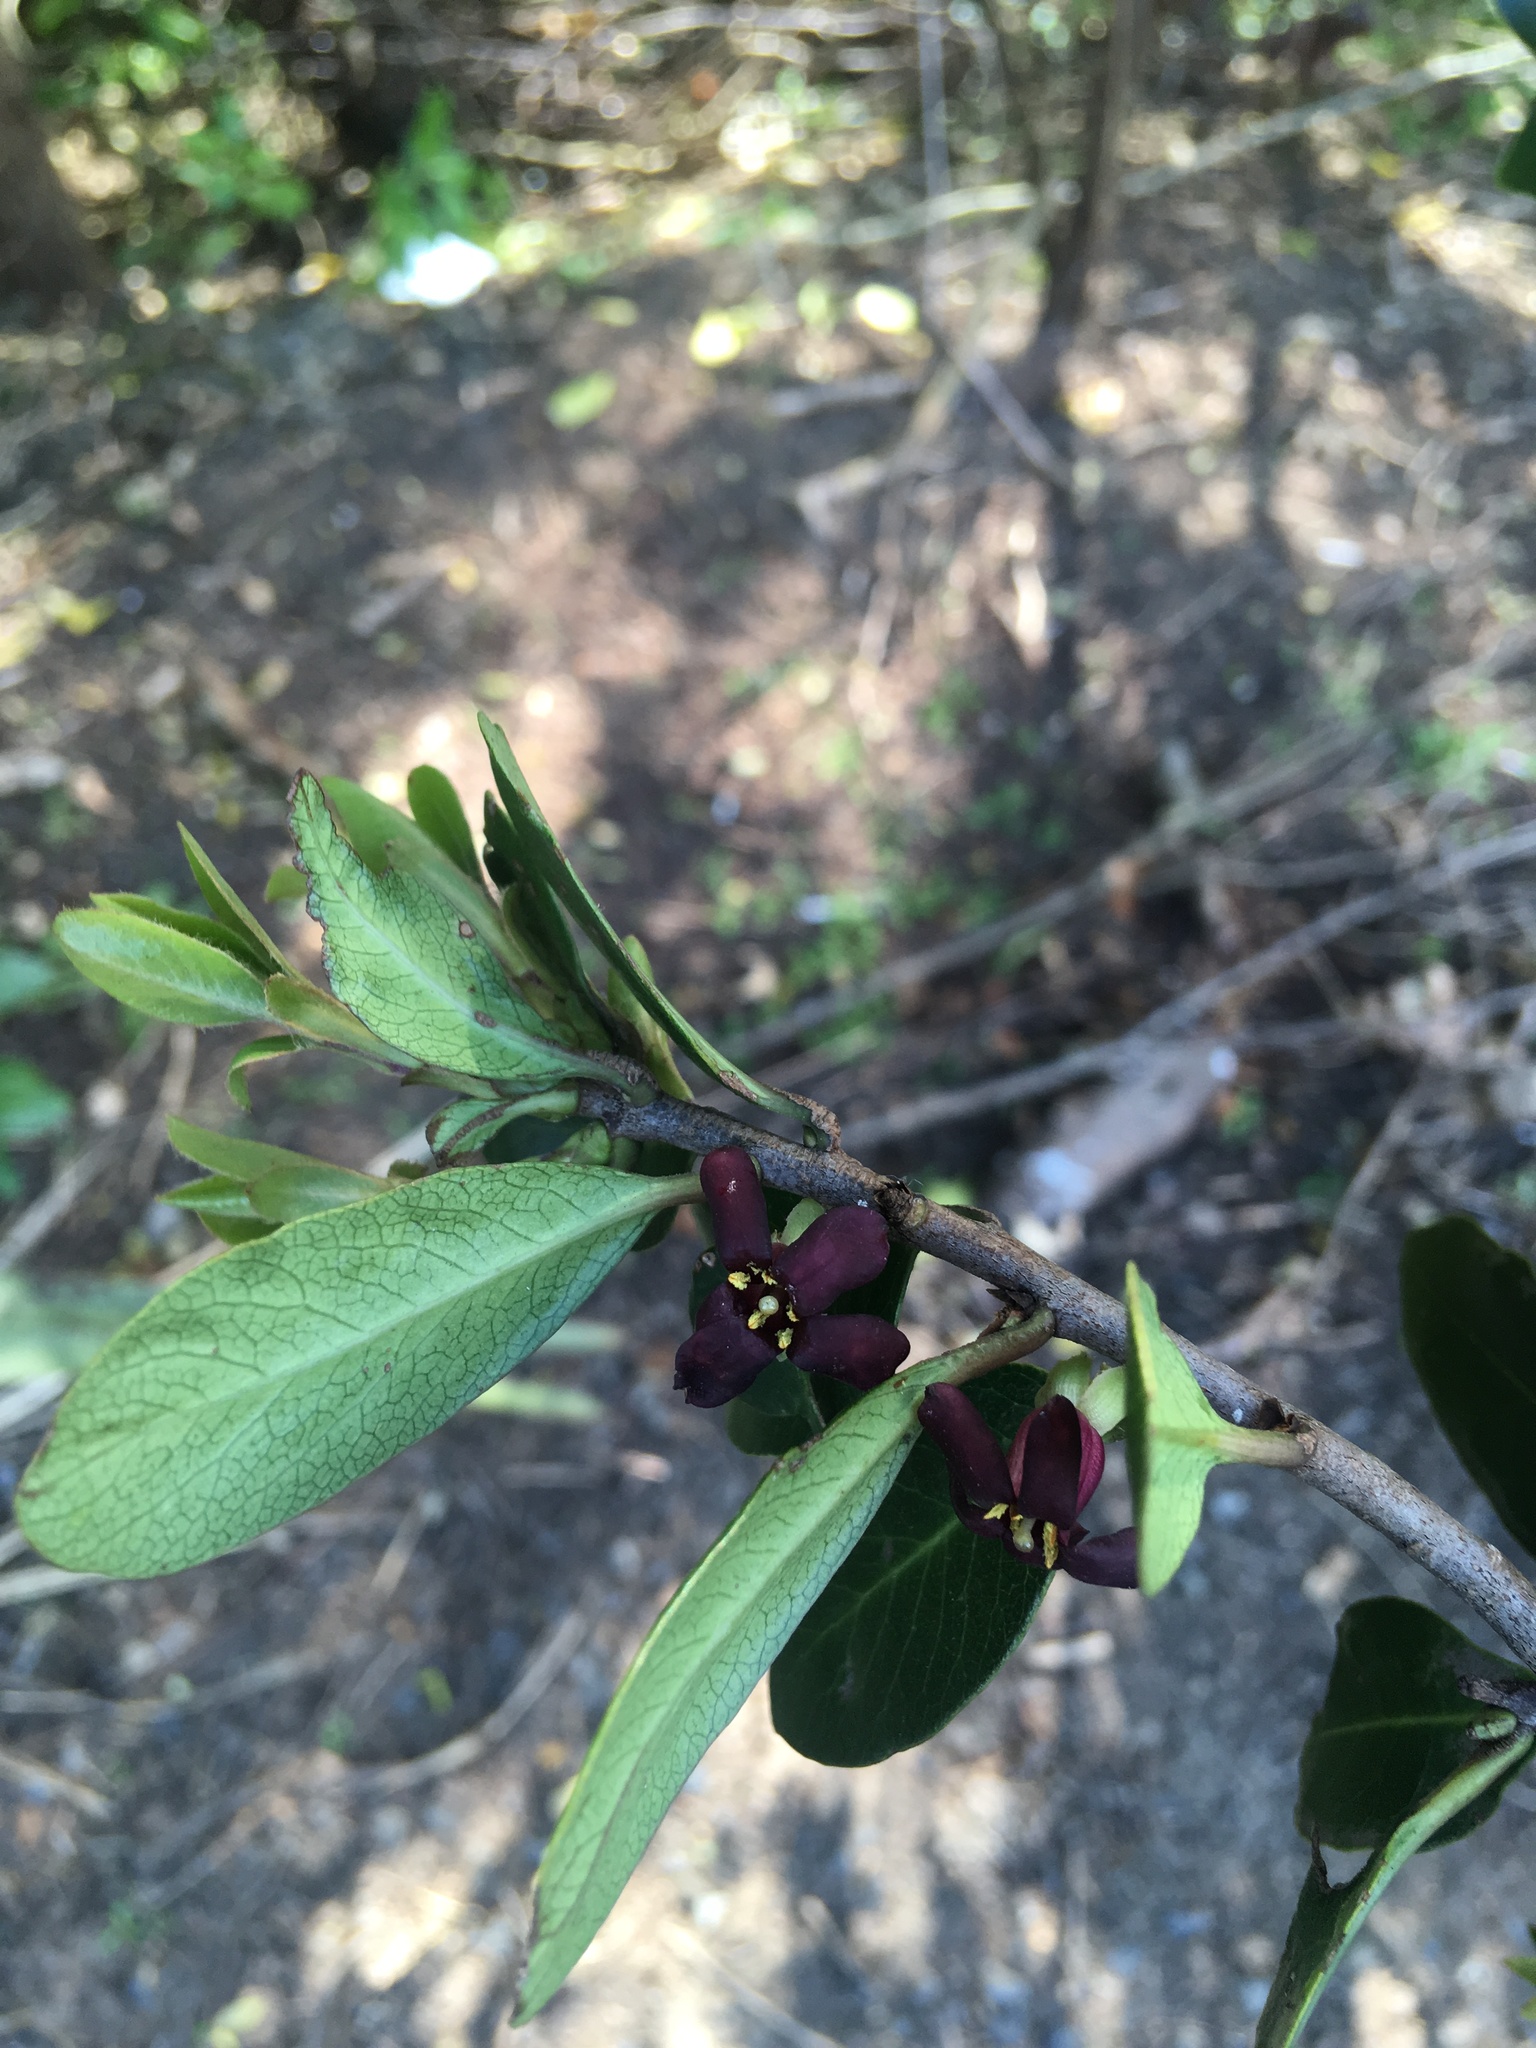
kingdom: Plantae
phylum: Tracheophyta
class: Magnoliopsida
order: Apiales
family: Pittosporaceae
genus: Pittosporum
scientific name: Pittosporum tenuifolium
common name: Kohuhu
